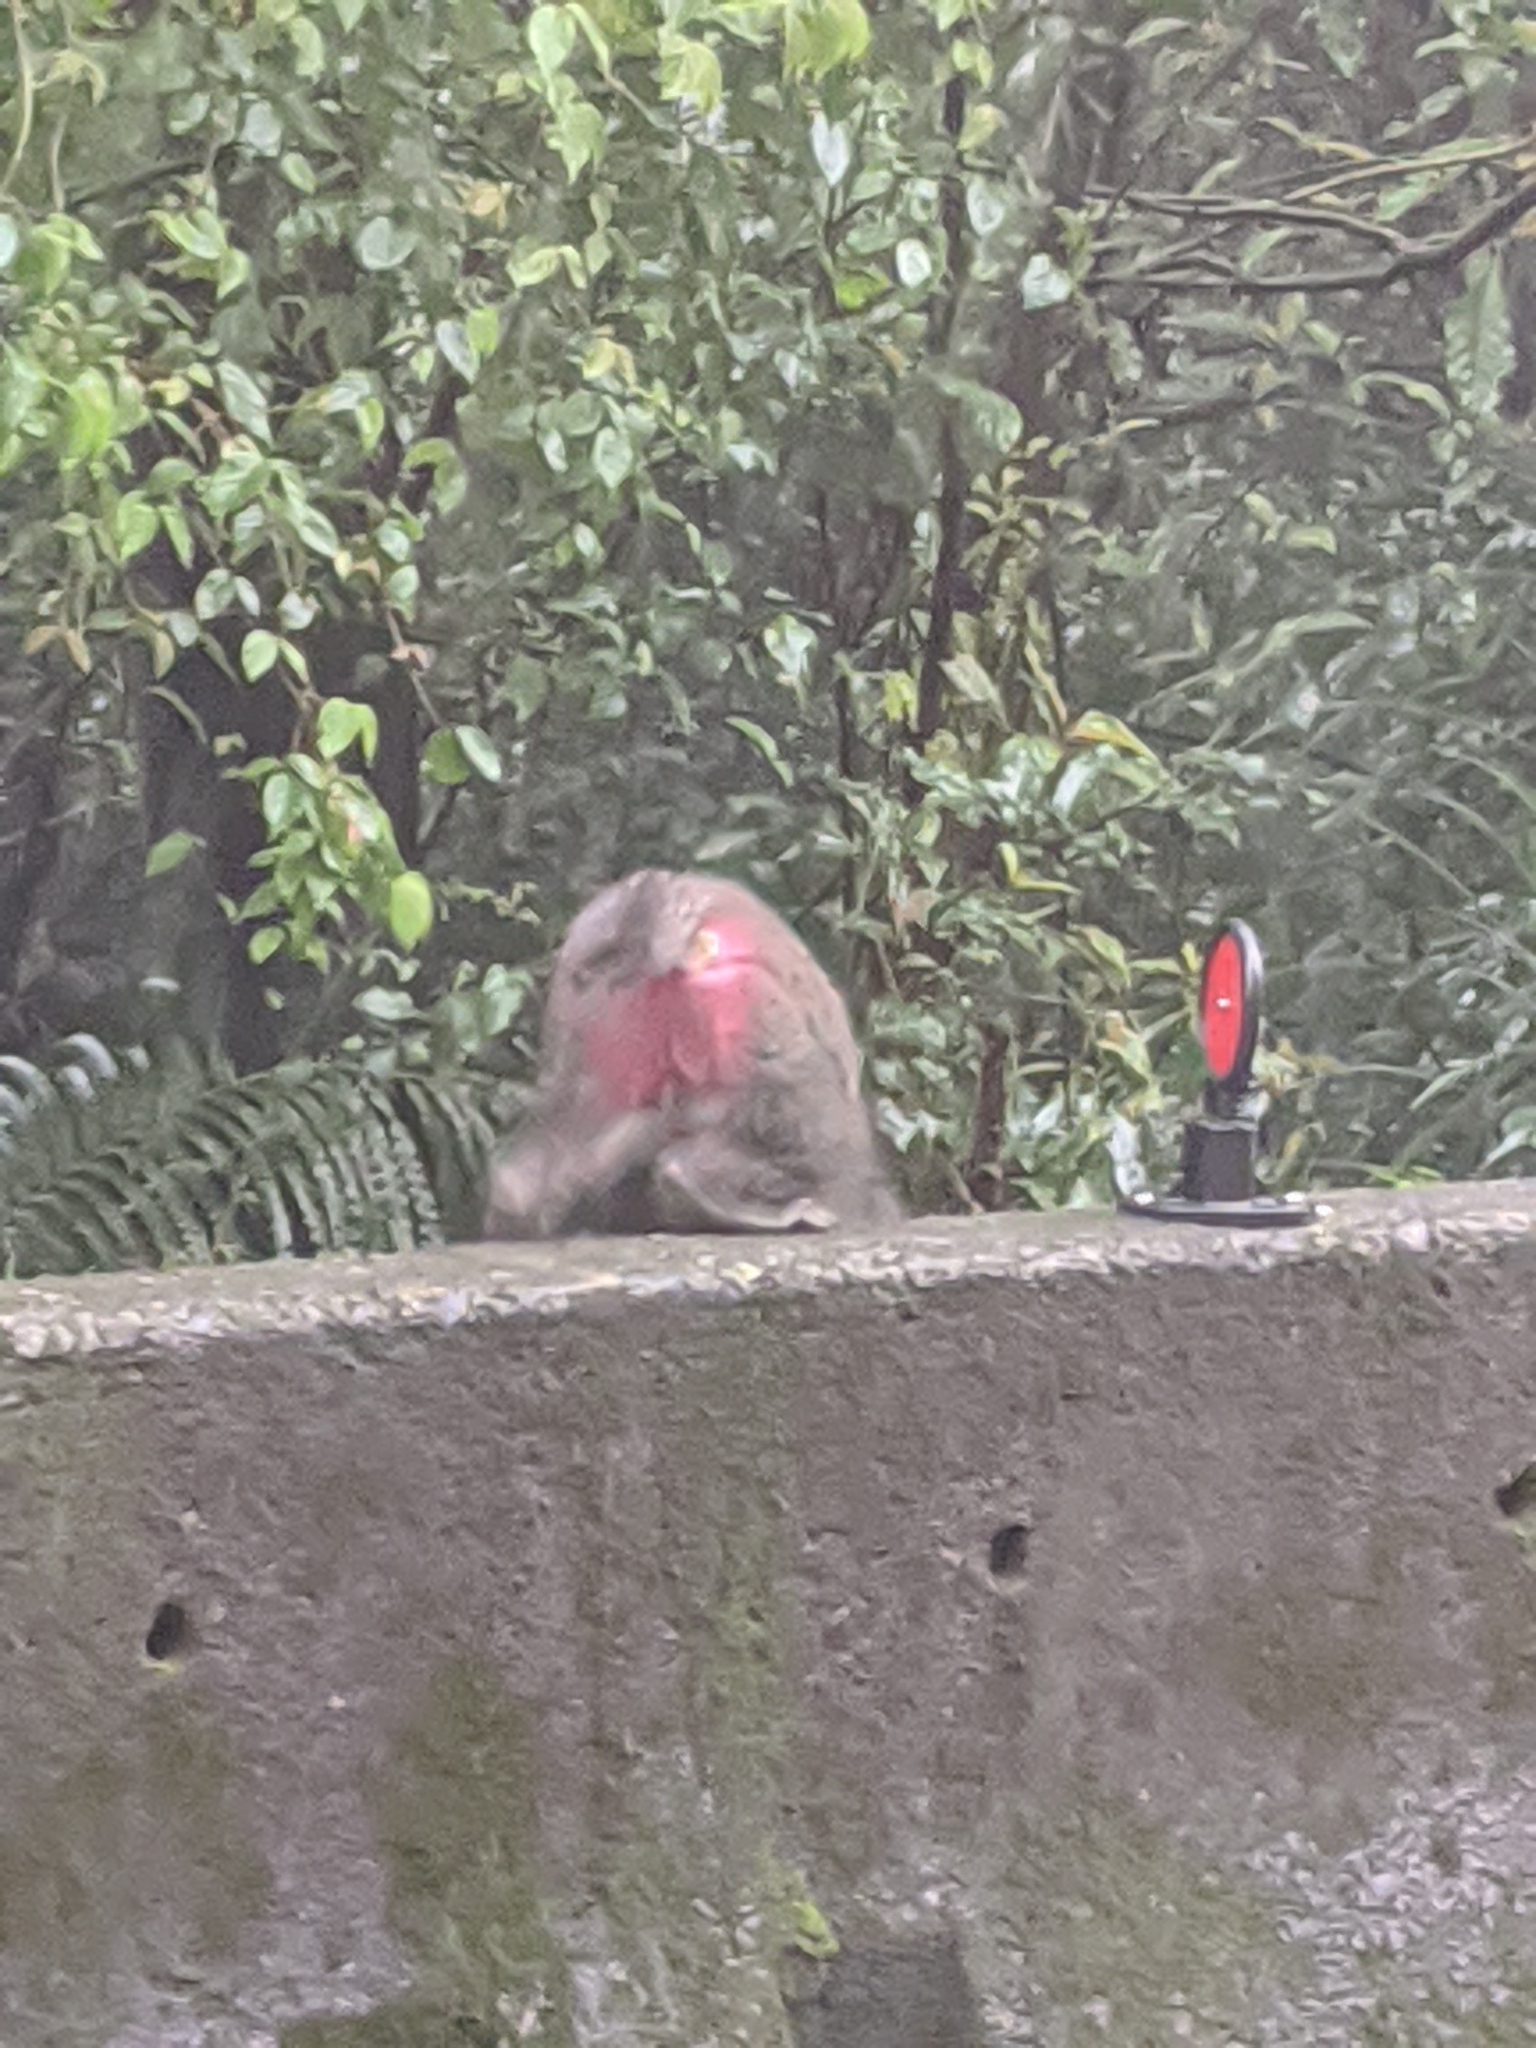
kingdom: Animalia
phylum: Chordata
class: Mammalia
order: Primates
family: Cercopithecidae
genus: Macaca
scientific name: Macaca cyclopis
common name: Formosan rock macaque
